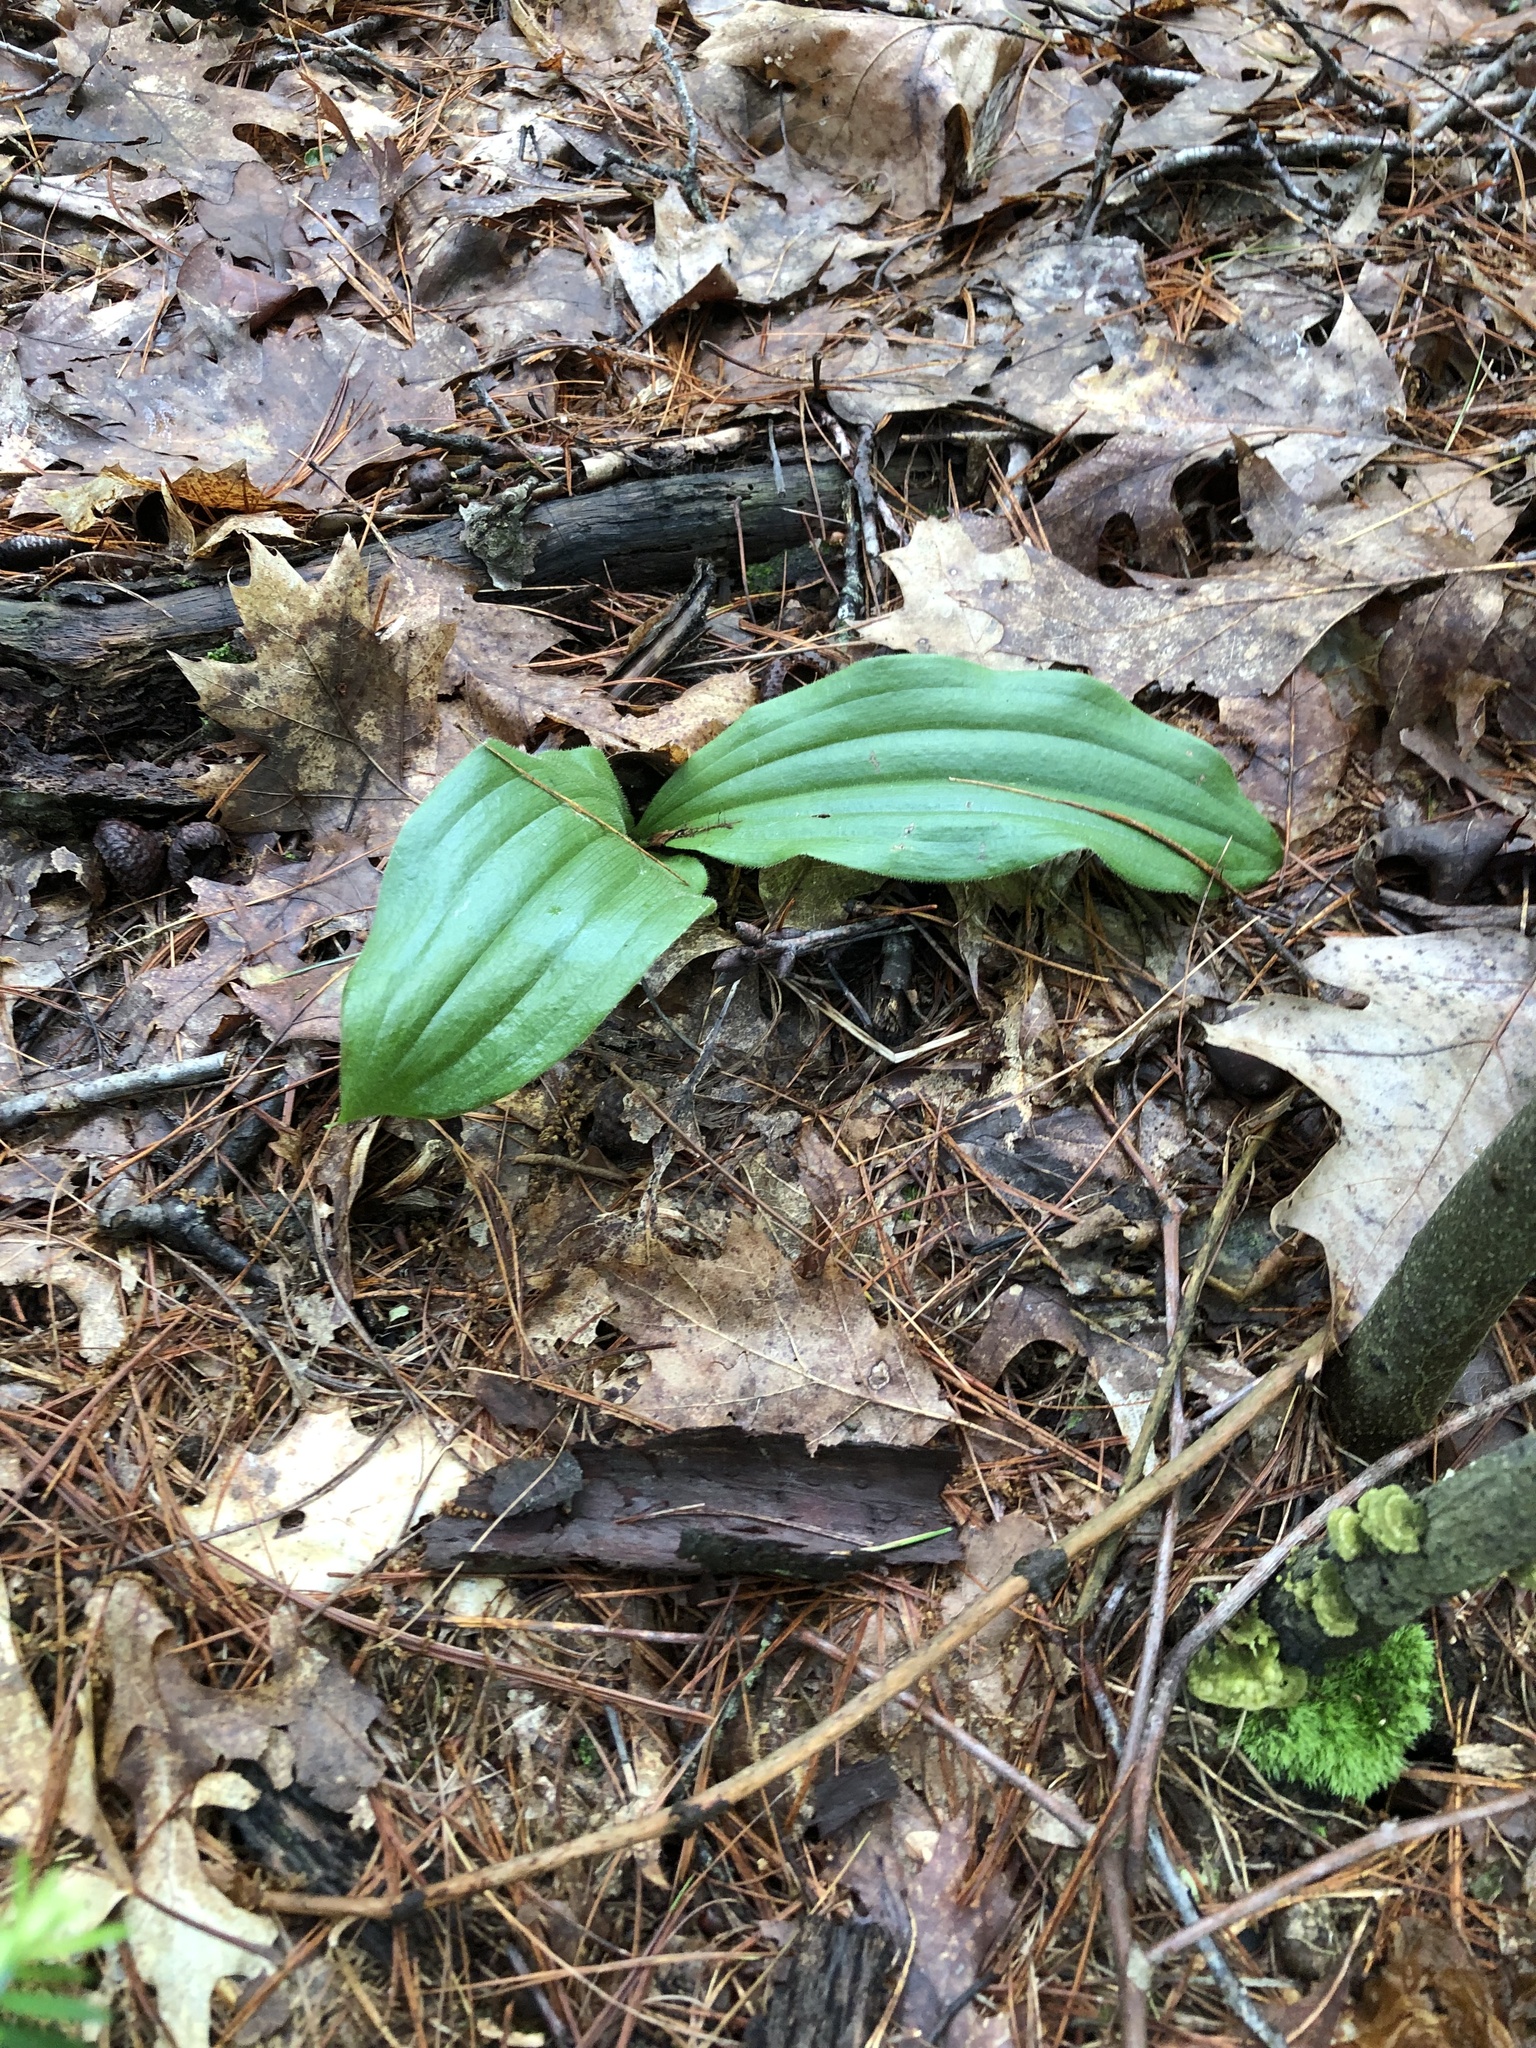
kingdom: Plantae
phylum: Tracheophyta
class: Liliopsida
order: Asparagales
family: Orchidaceae
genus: Cypripedium
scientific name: Cypripedium acaule
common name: Pink lady's-slipper
